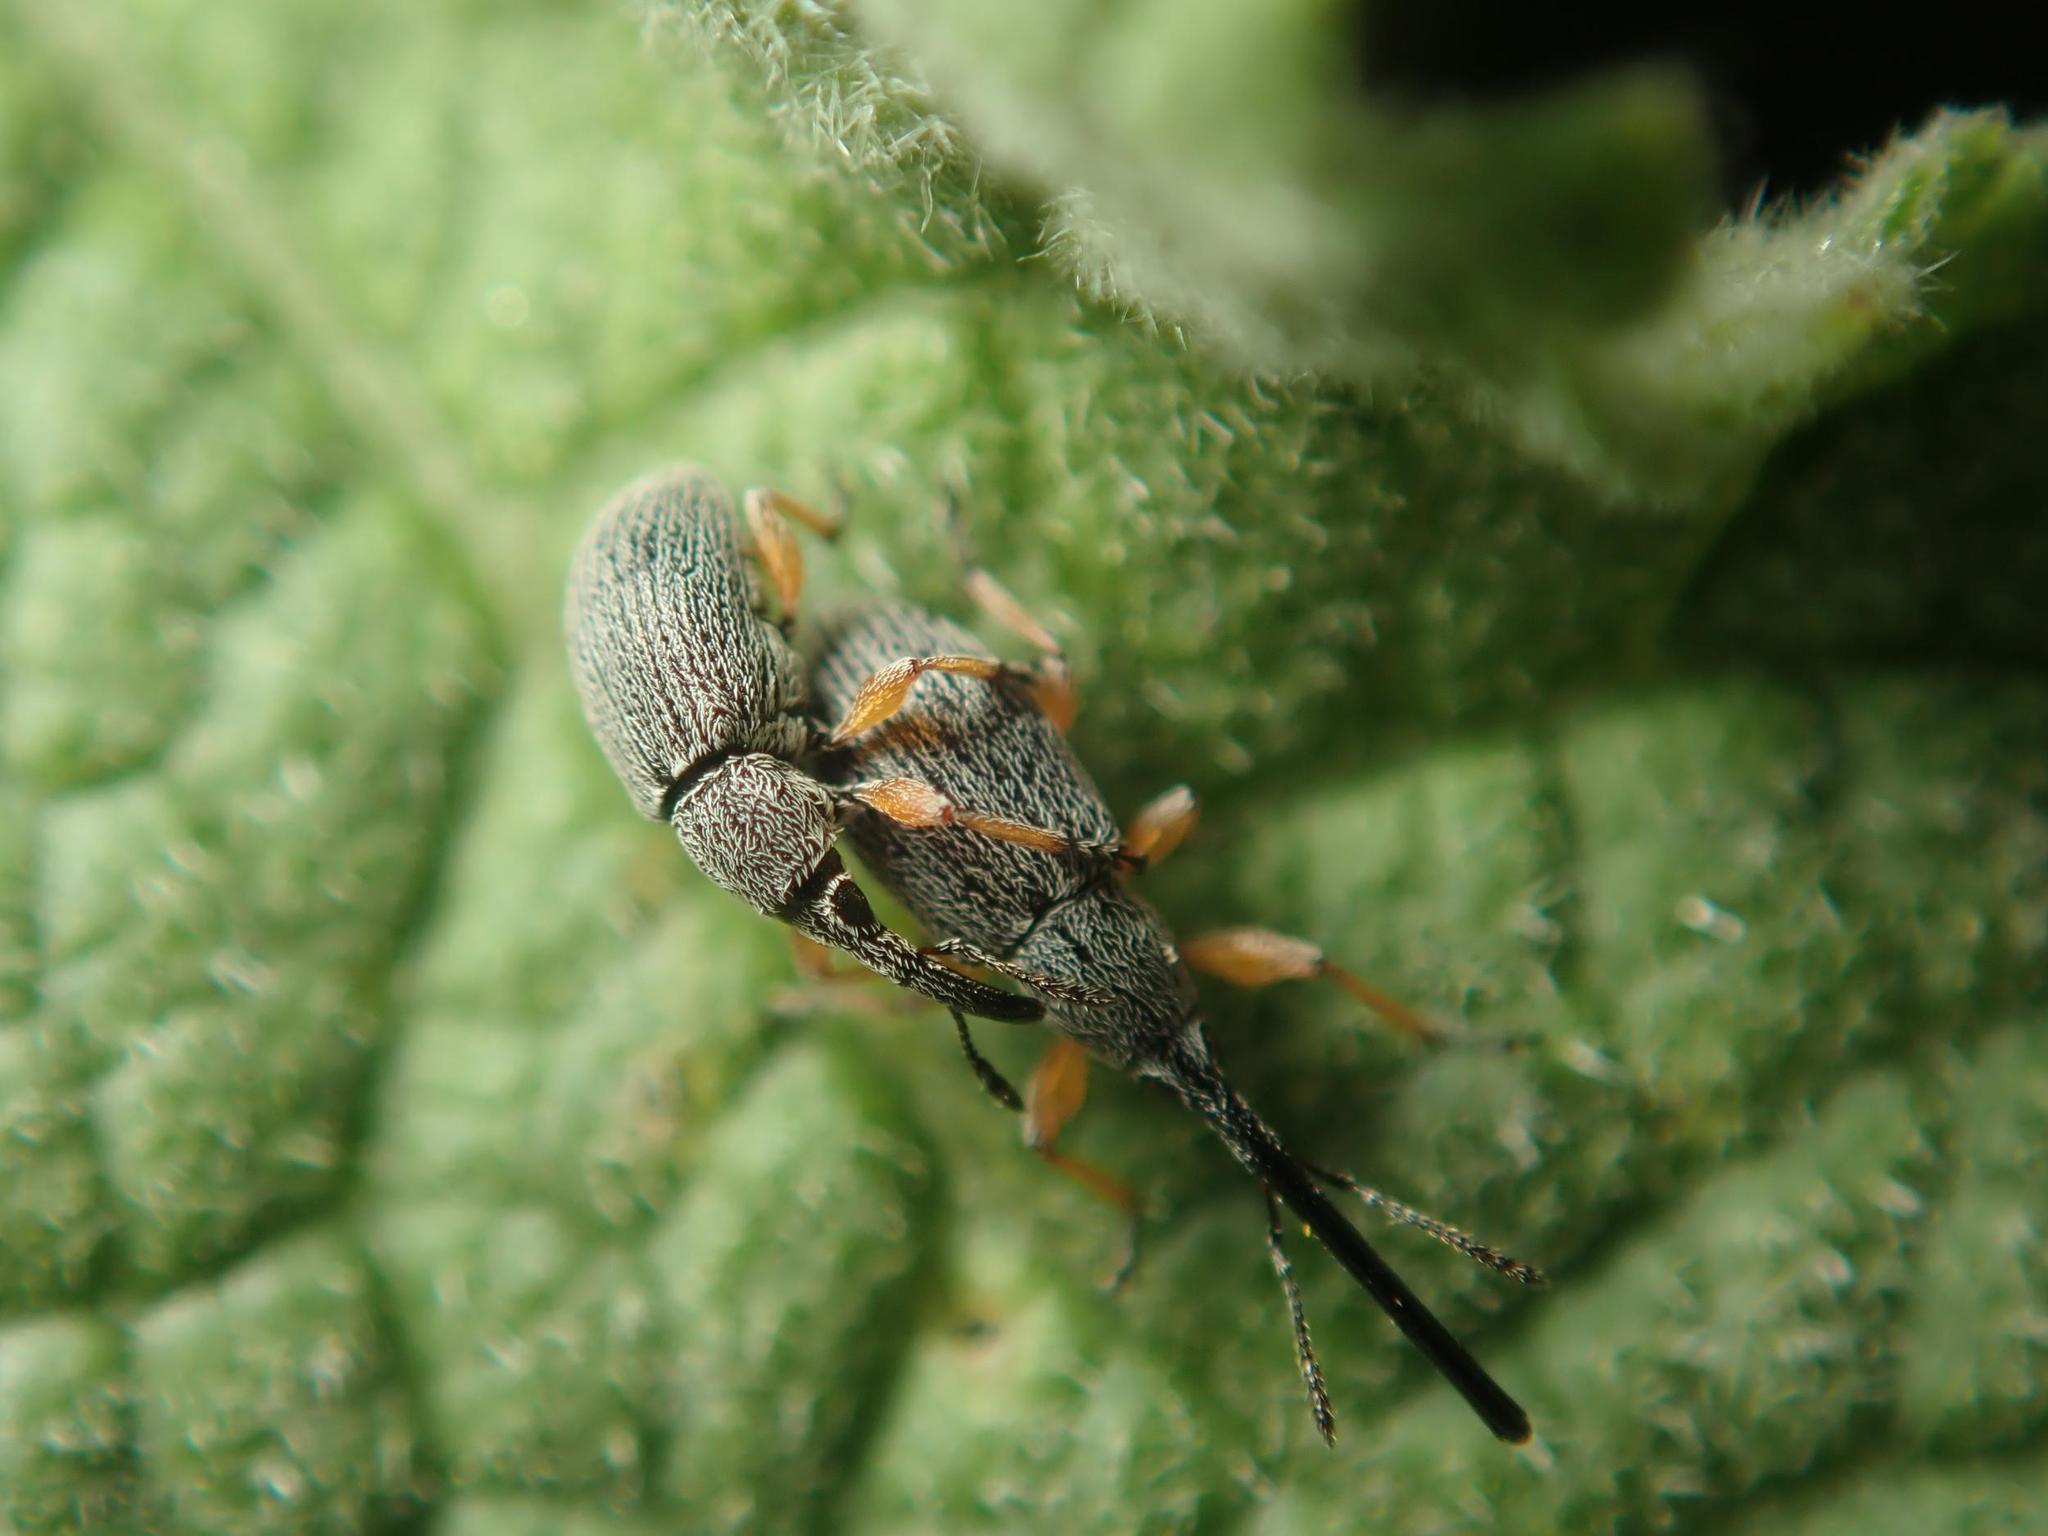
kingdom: Animalia
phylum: Arthropoda
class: Insecta
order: Coleoptera
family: Brentidae
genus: Rhopalapion
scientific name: Rhopalapion longirostre
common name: Hollyhock weevil
